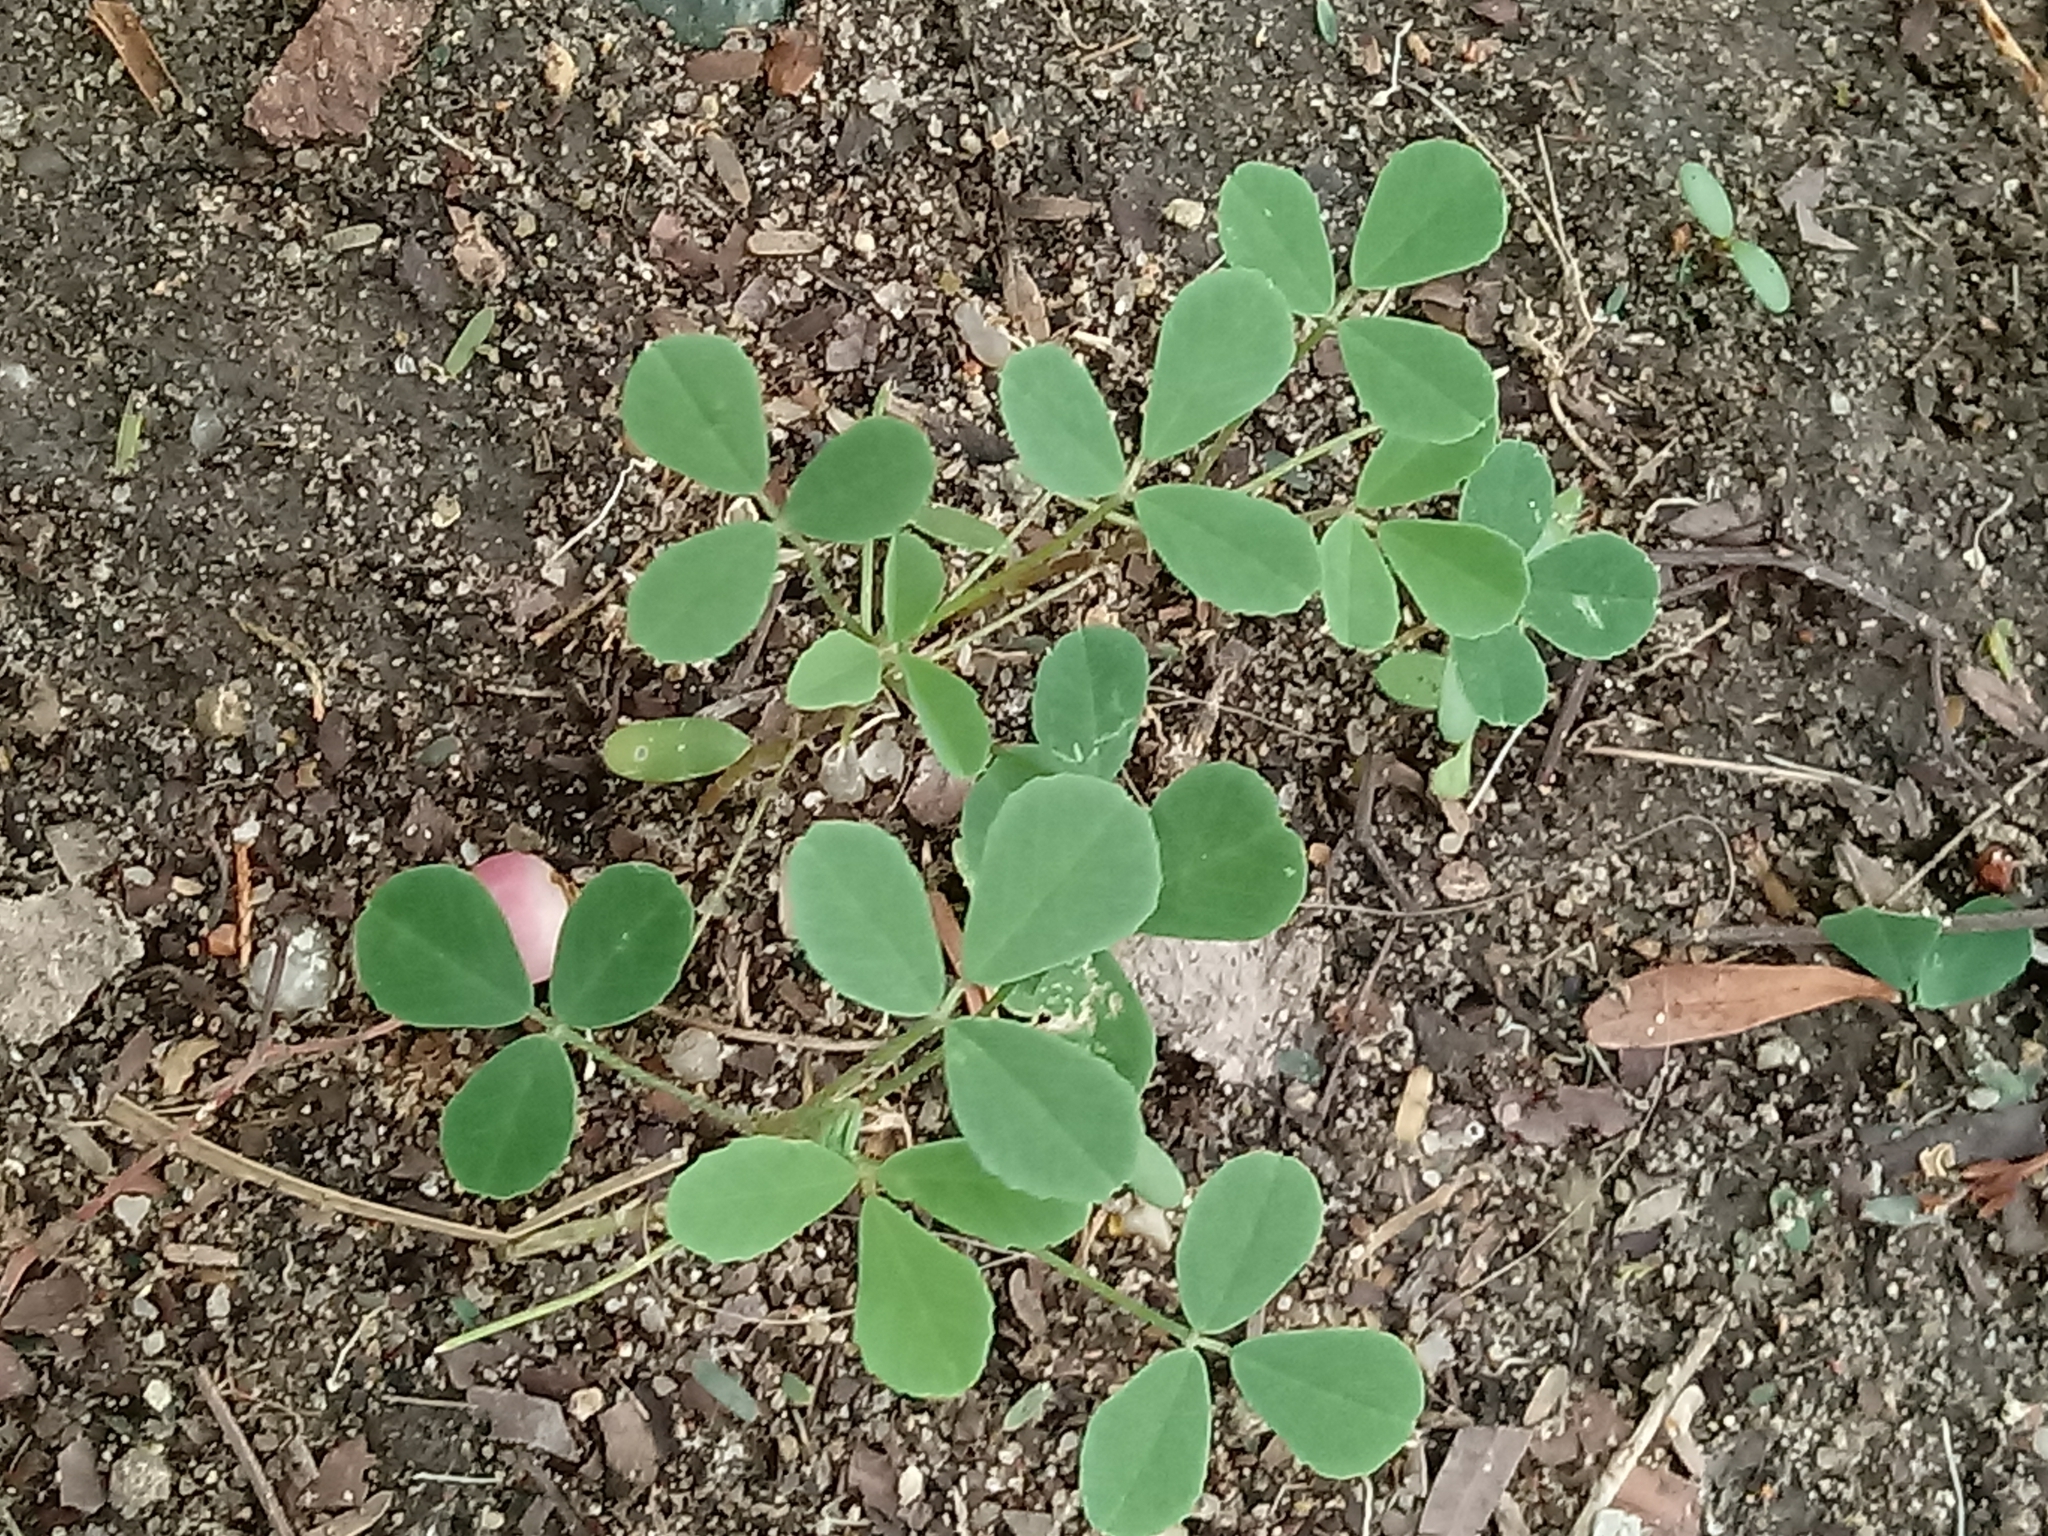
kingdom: Plantae
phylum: Tracheophyta
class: Magnoliopsida
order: Fabales
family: Fabaceae
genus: Melilotus
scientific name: Melilotus indicus
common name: Small melilot
